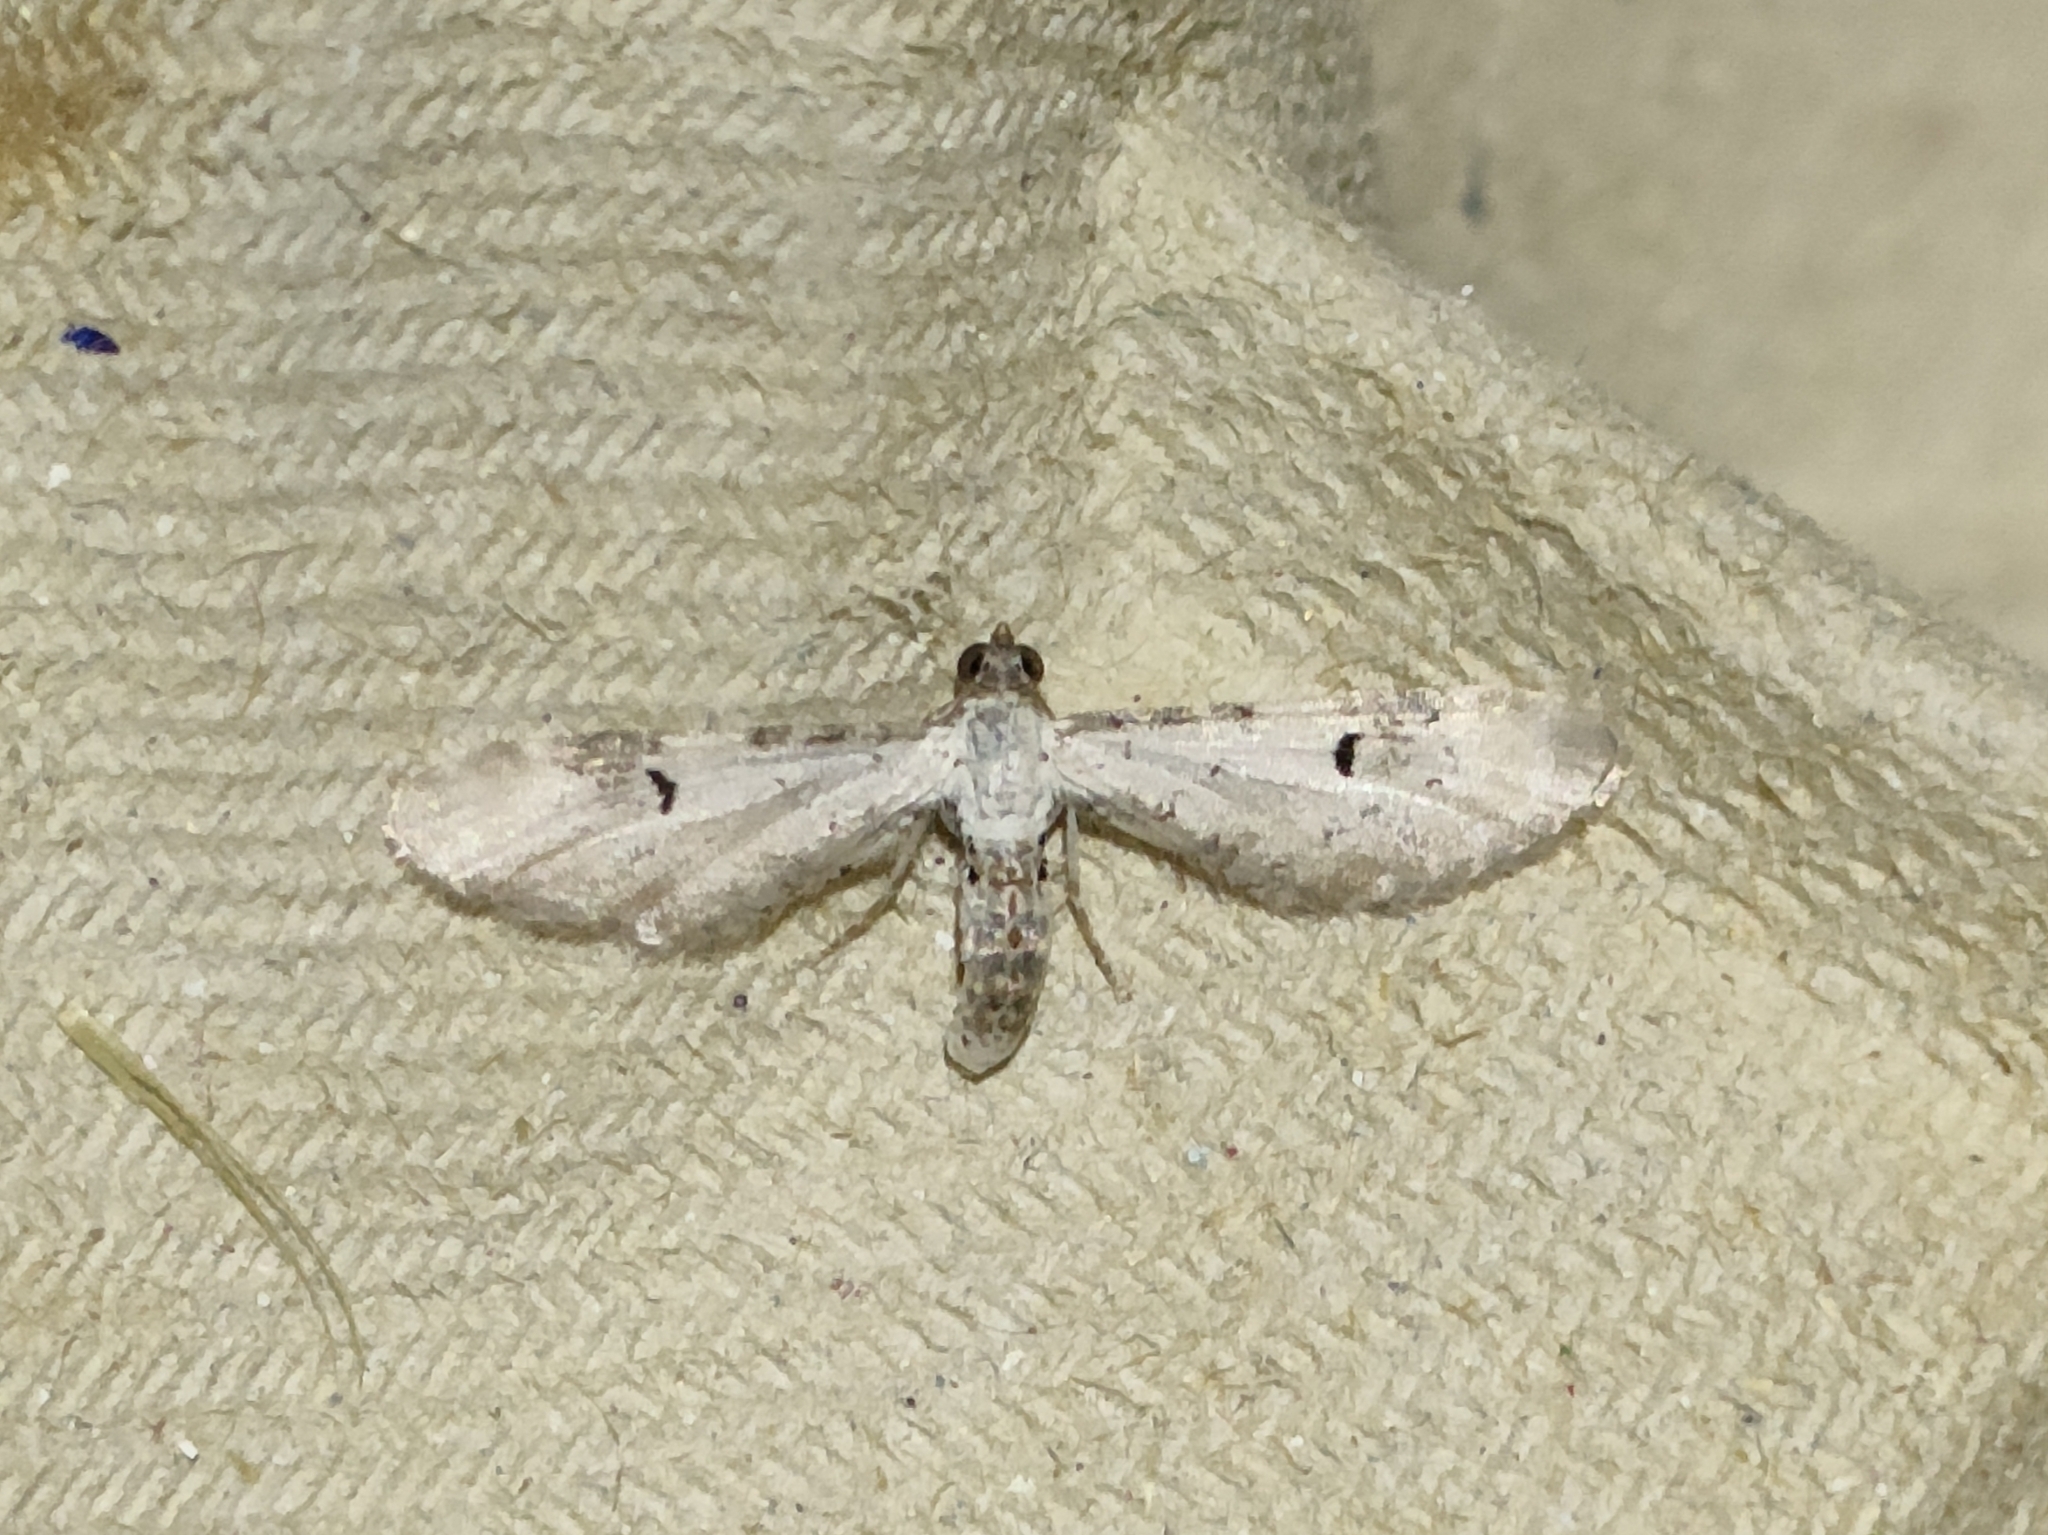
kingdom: Animalia
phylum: Arthropoda
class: Insecta
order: Lepidoptera
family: Geometridae
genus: Eupithecia
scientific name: Eupithecia centaureata
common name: Lime-speck pug
